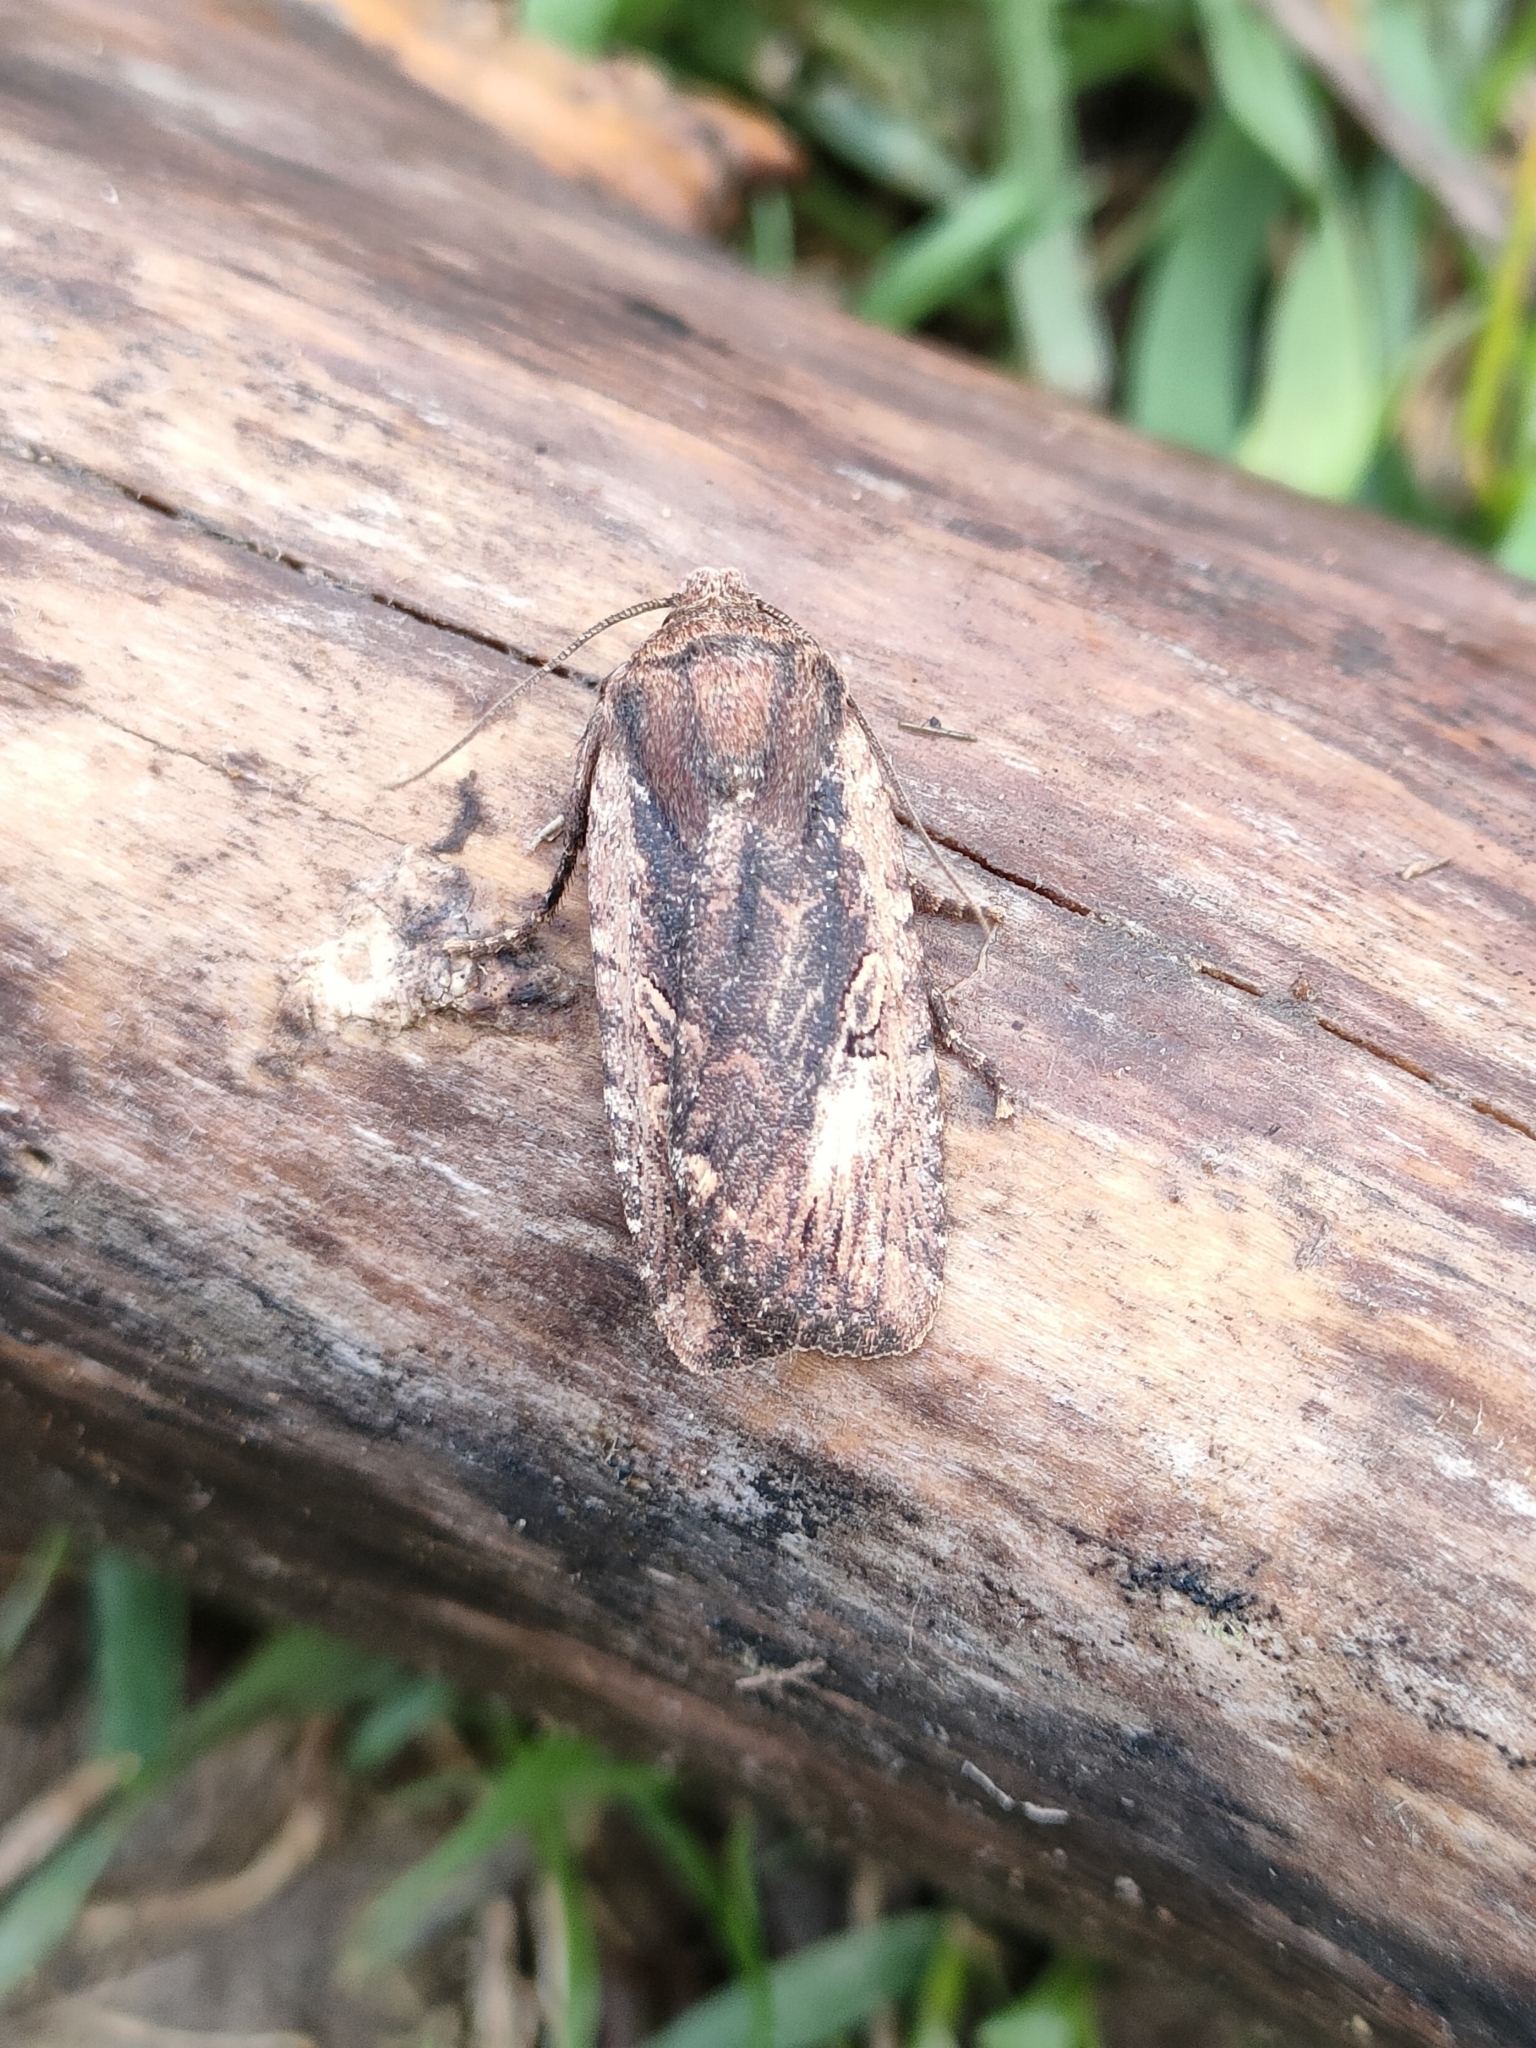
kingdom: Animalia
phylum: Arthropoda
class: Insecta
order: Lepidoptera
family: Noctuidae
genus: Conistra
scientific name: Conistra torrida
